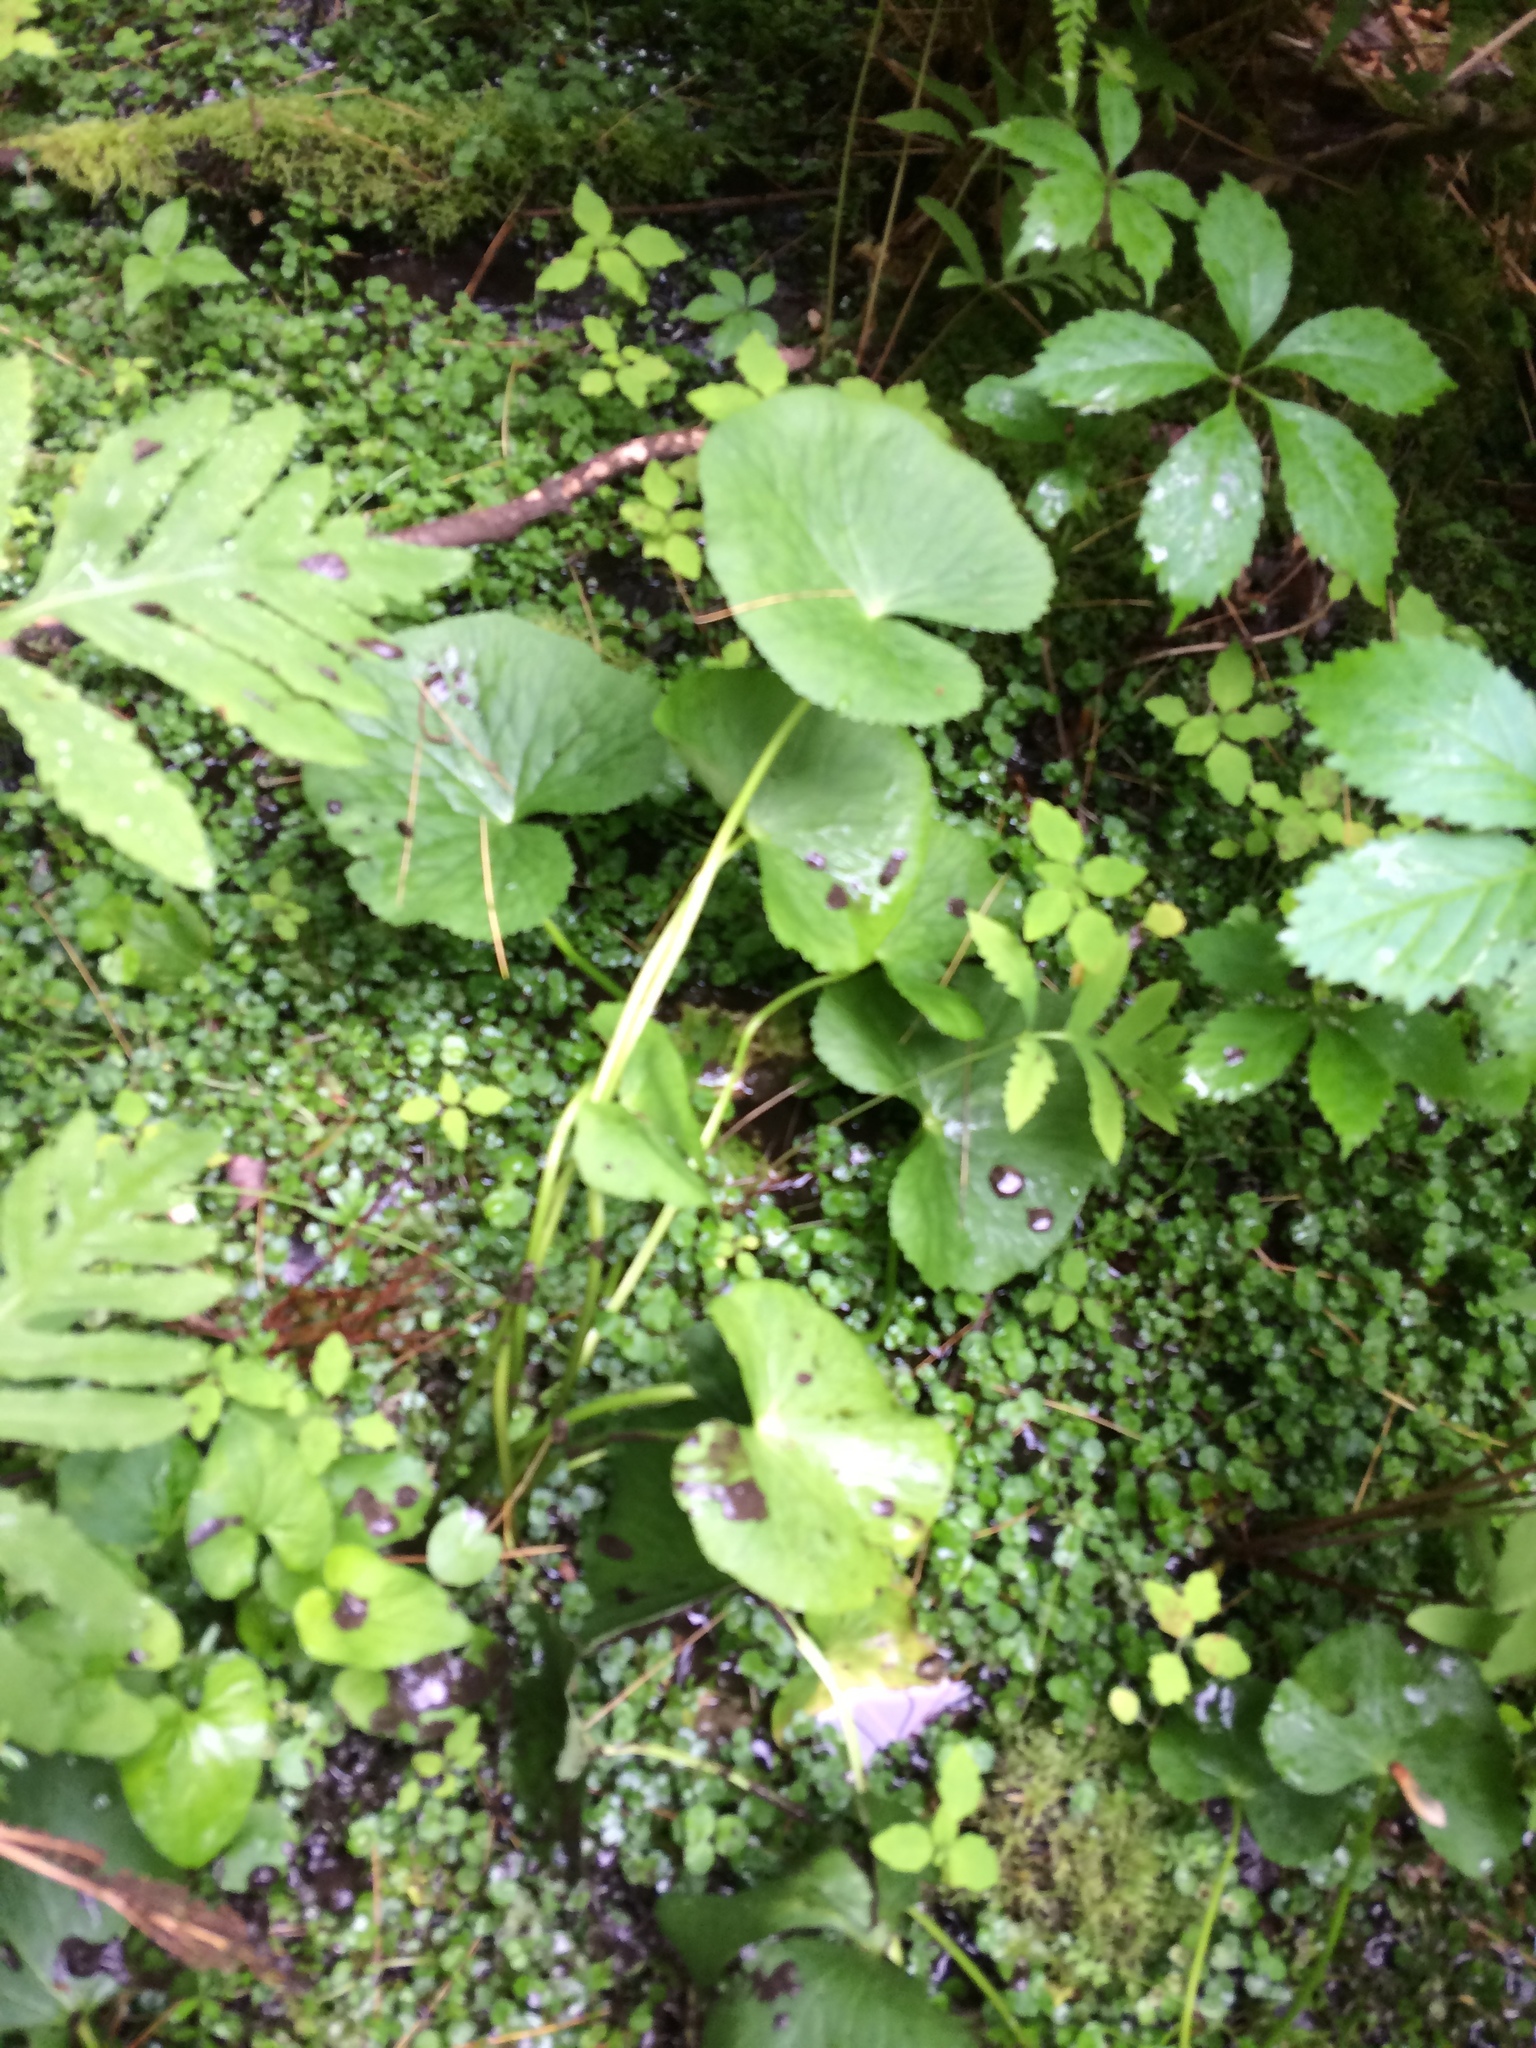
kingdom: Plantae
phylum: Tracheophyta
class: Magnoliopsida
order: Ranunculales
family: Ranunculaceae
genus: Caltha
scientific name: Caltha palustris
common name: Marsh marigold
